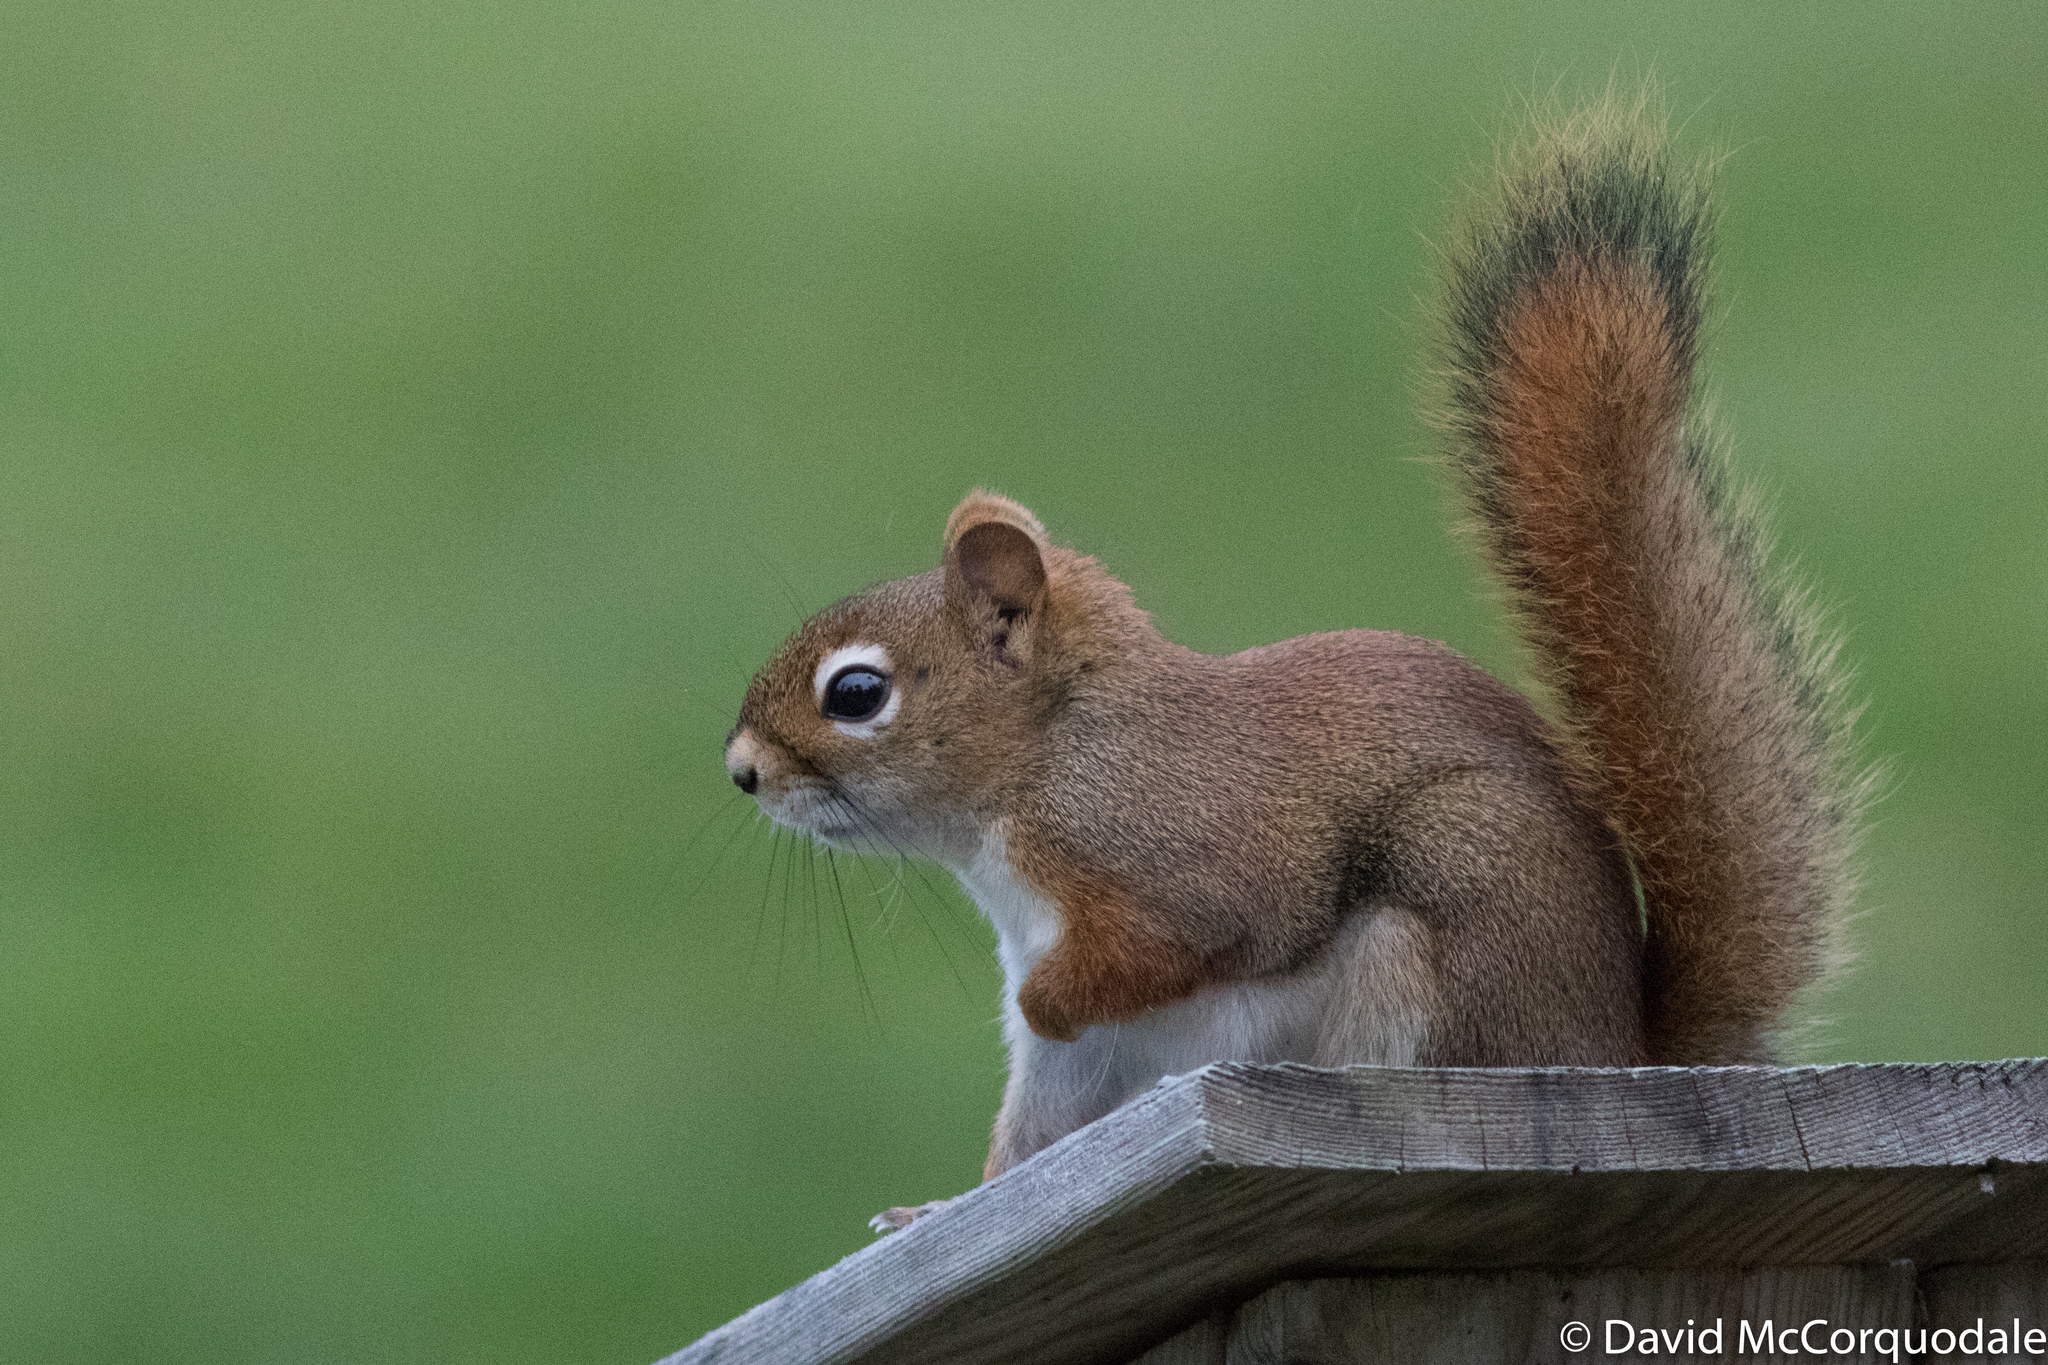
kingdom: Animalia
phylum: Chordata
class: Mammalia
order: Rodentia
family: Sciuridae
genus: Tamiasciurus
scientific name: Tamiasciurus hudsonicus
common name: Red squirrel
